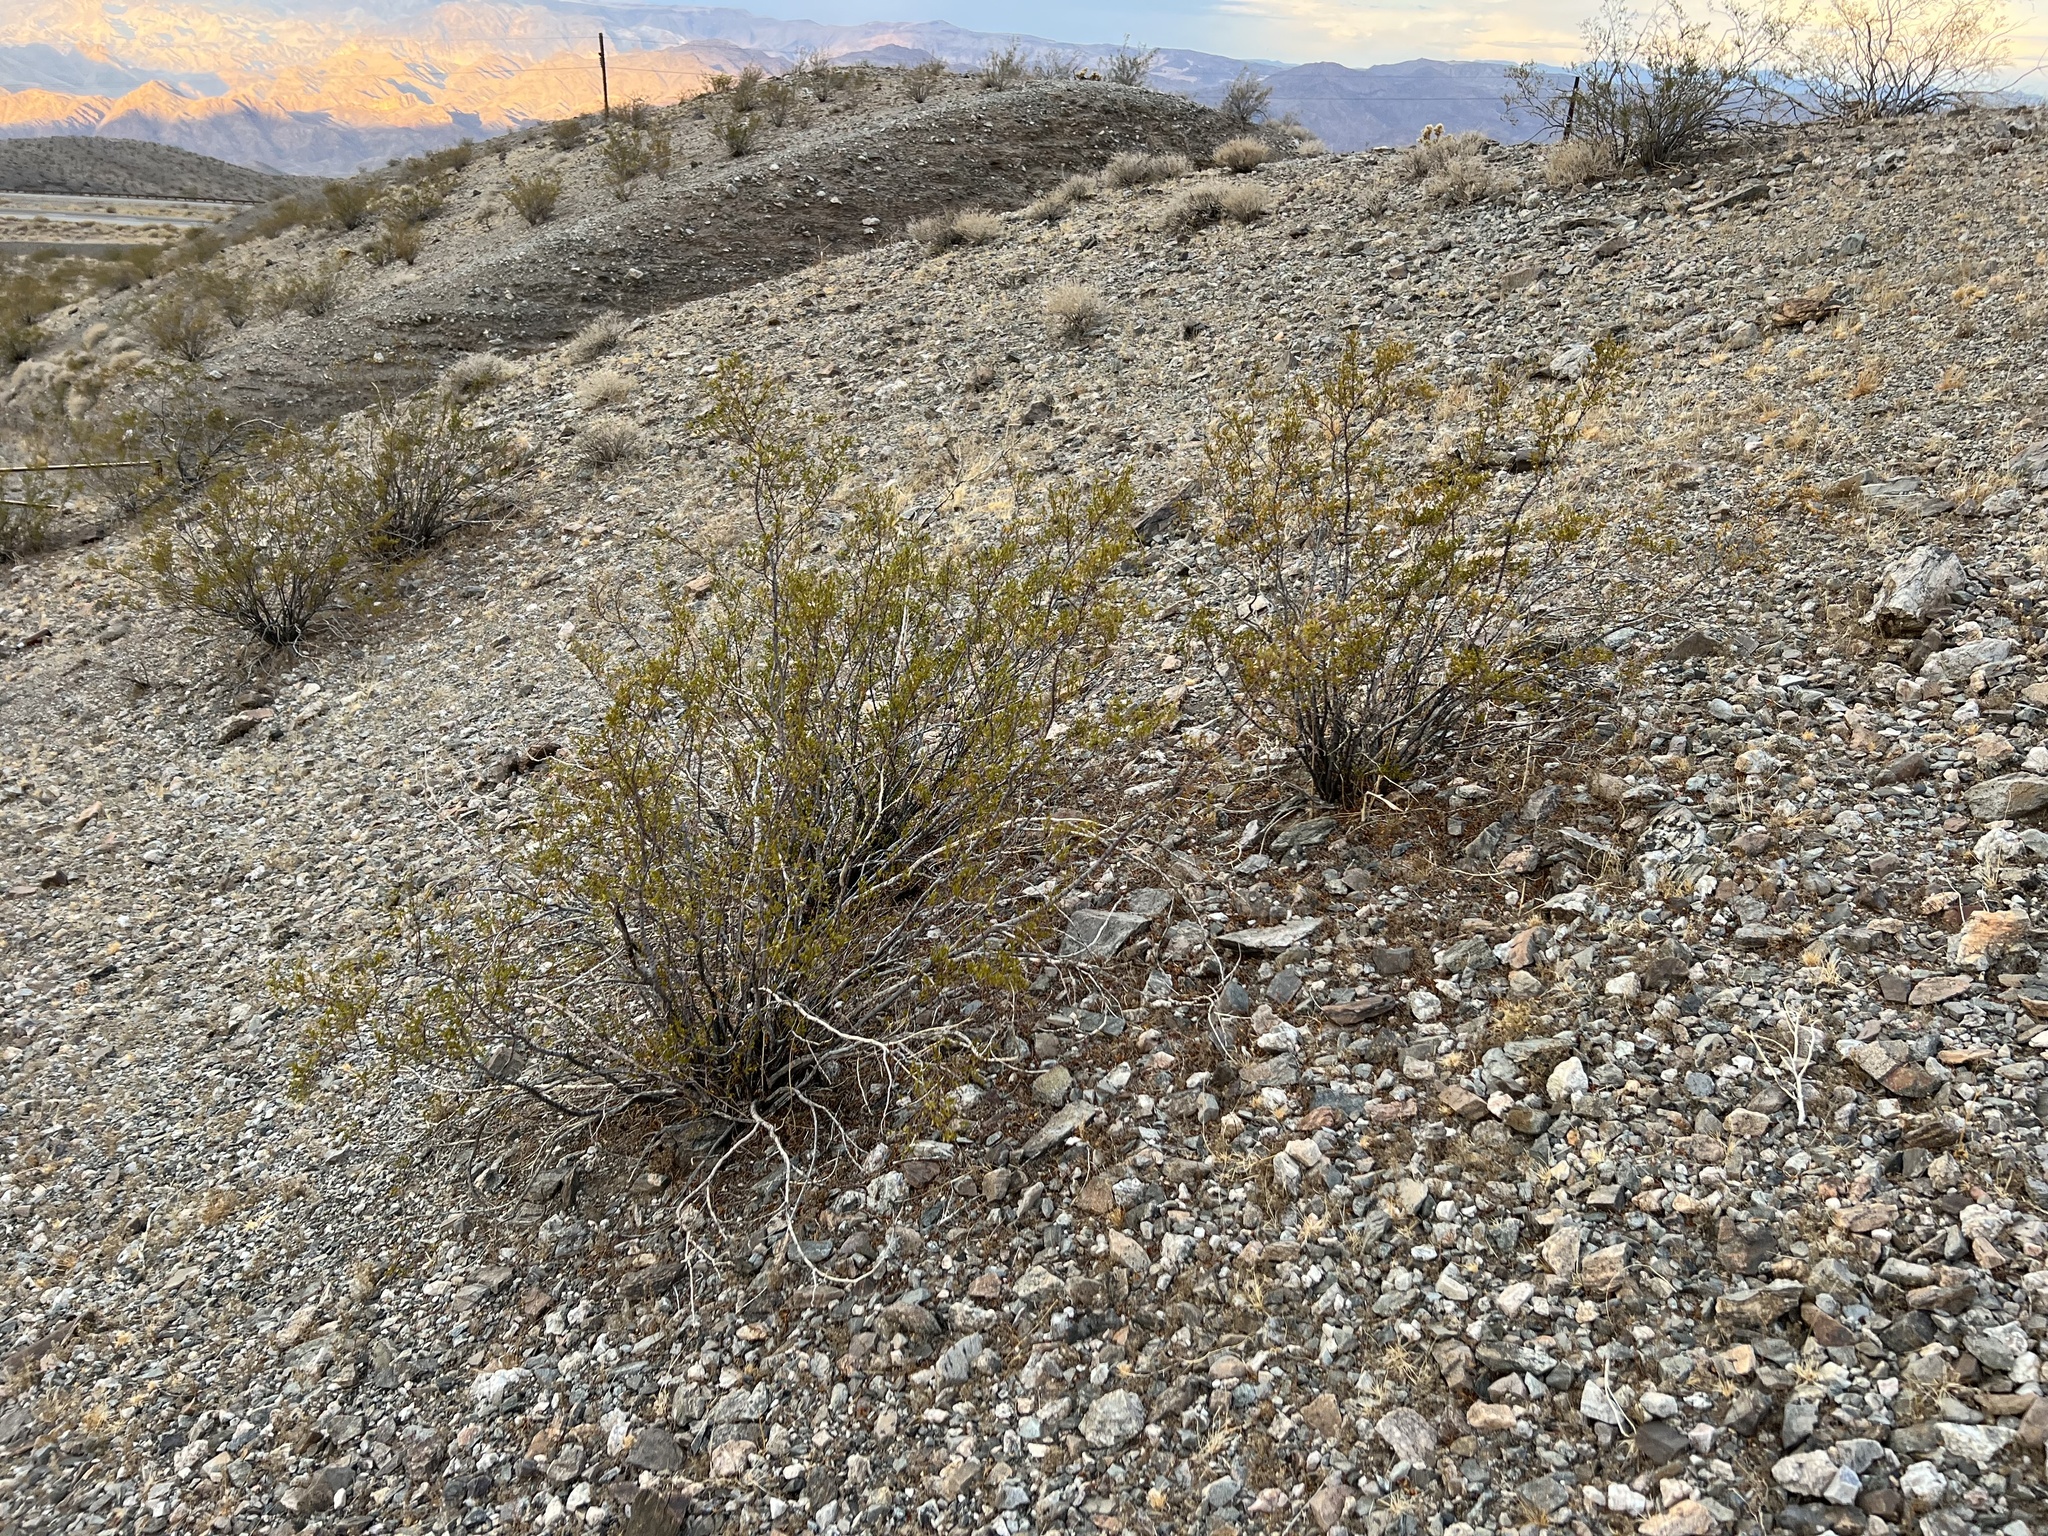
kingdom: Plantae
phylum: Tracheophyta
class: Magnoliopsida
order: Zygophyllales
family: Zygophyllaceae
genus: Larrea
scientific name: Larrea tridentata
